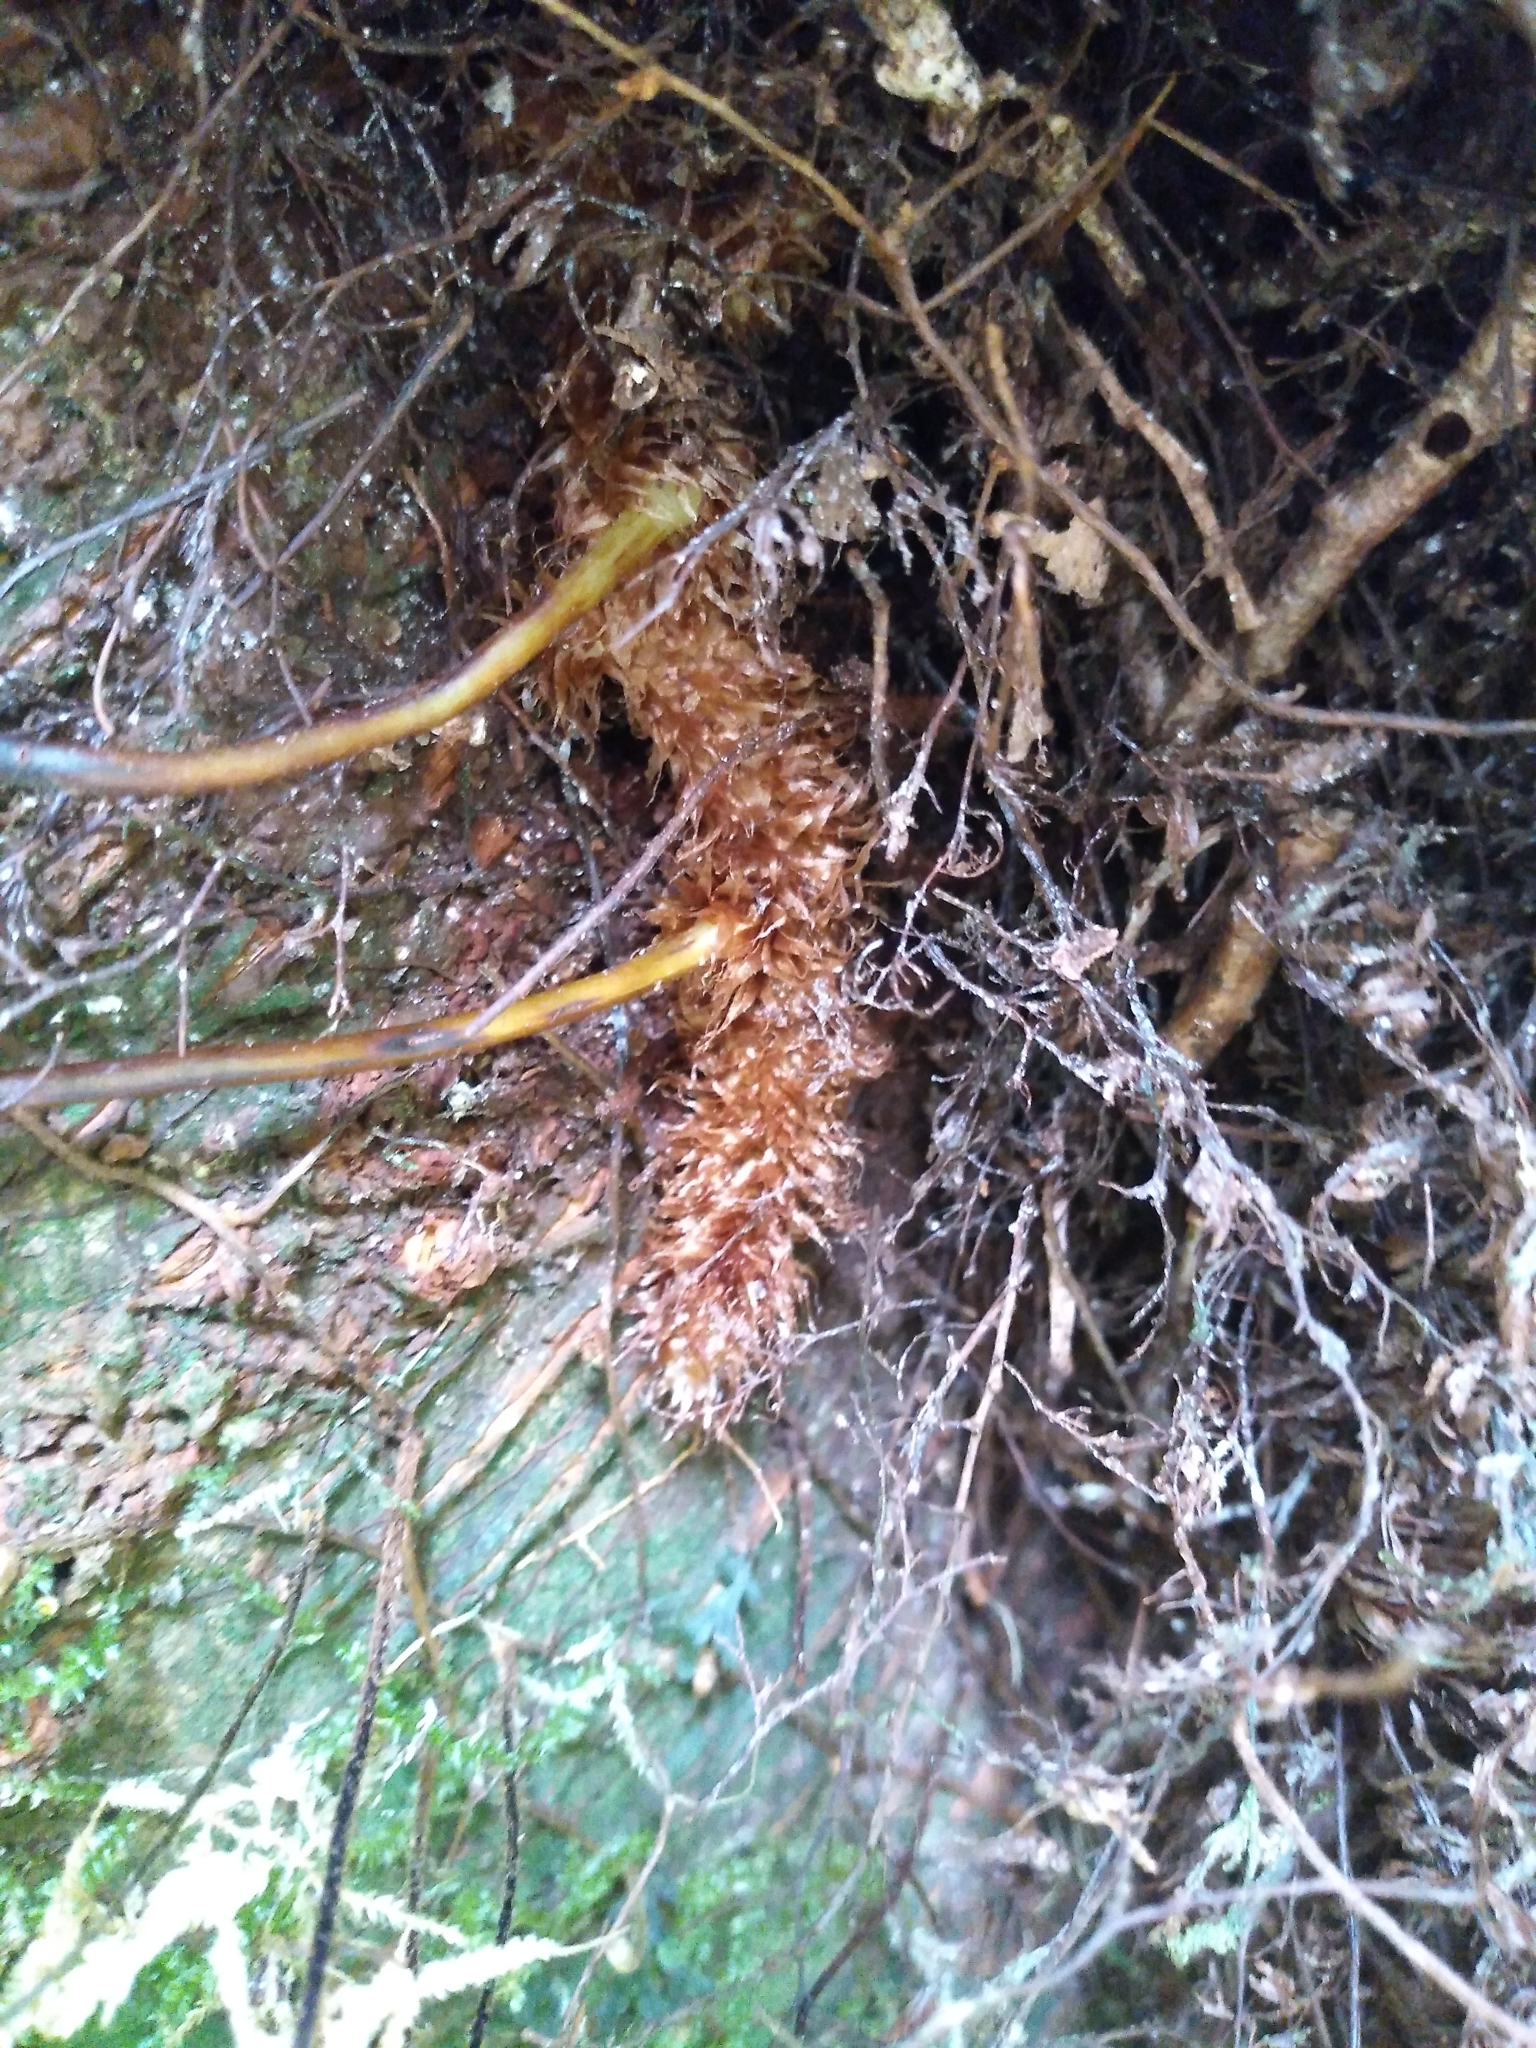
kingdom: Plantae
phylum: Tracheophyta
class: Polypodiopsida
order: Polypodiales
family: Polypodiaceae
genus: Lecanopteris
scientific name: Lecanopteris novae-zealandiae
